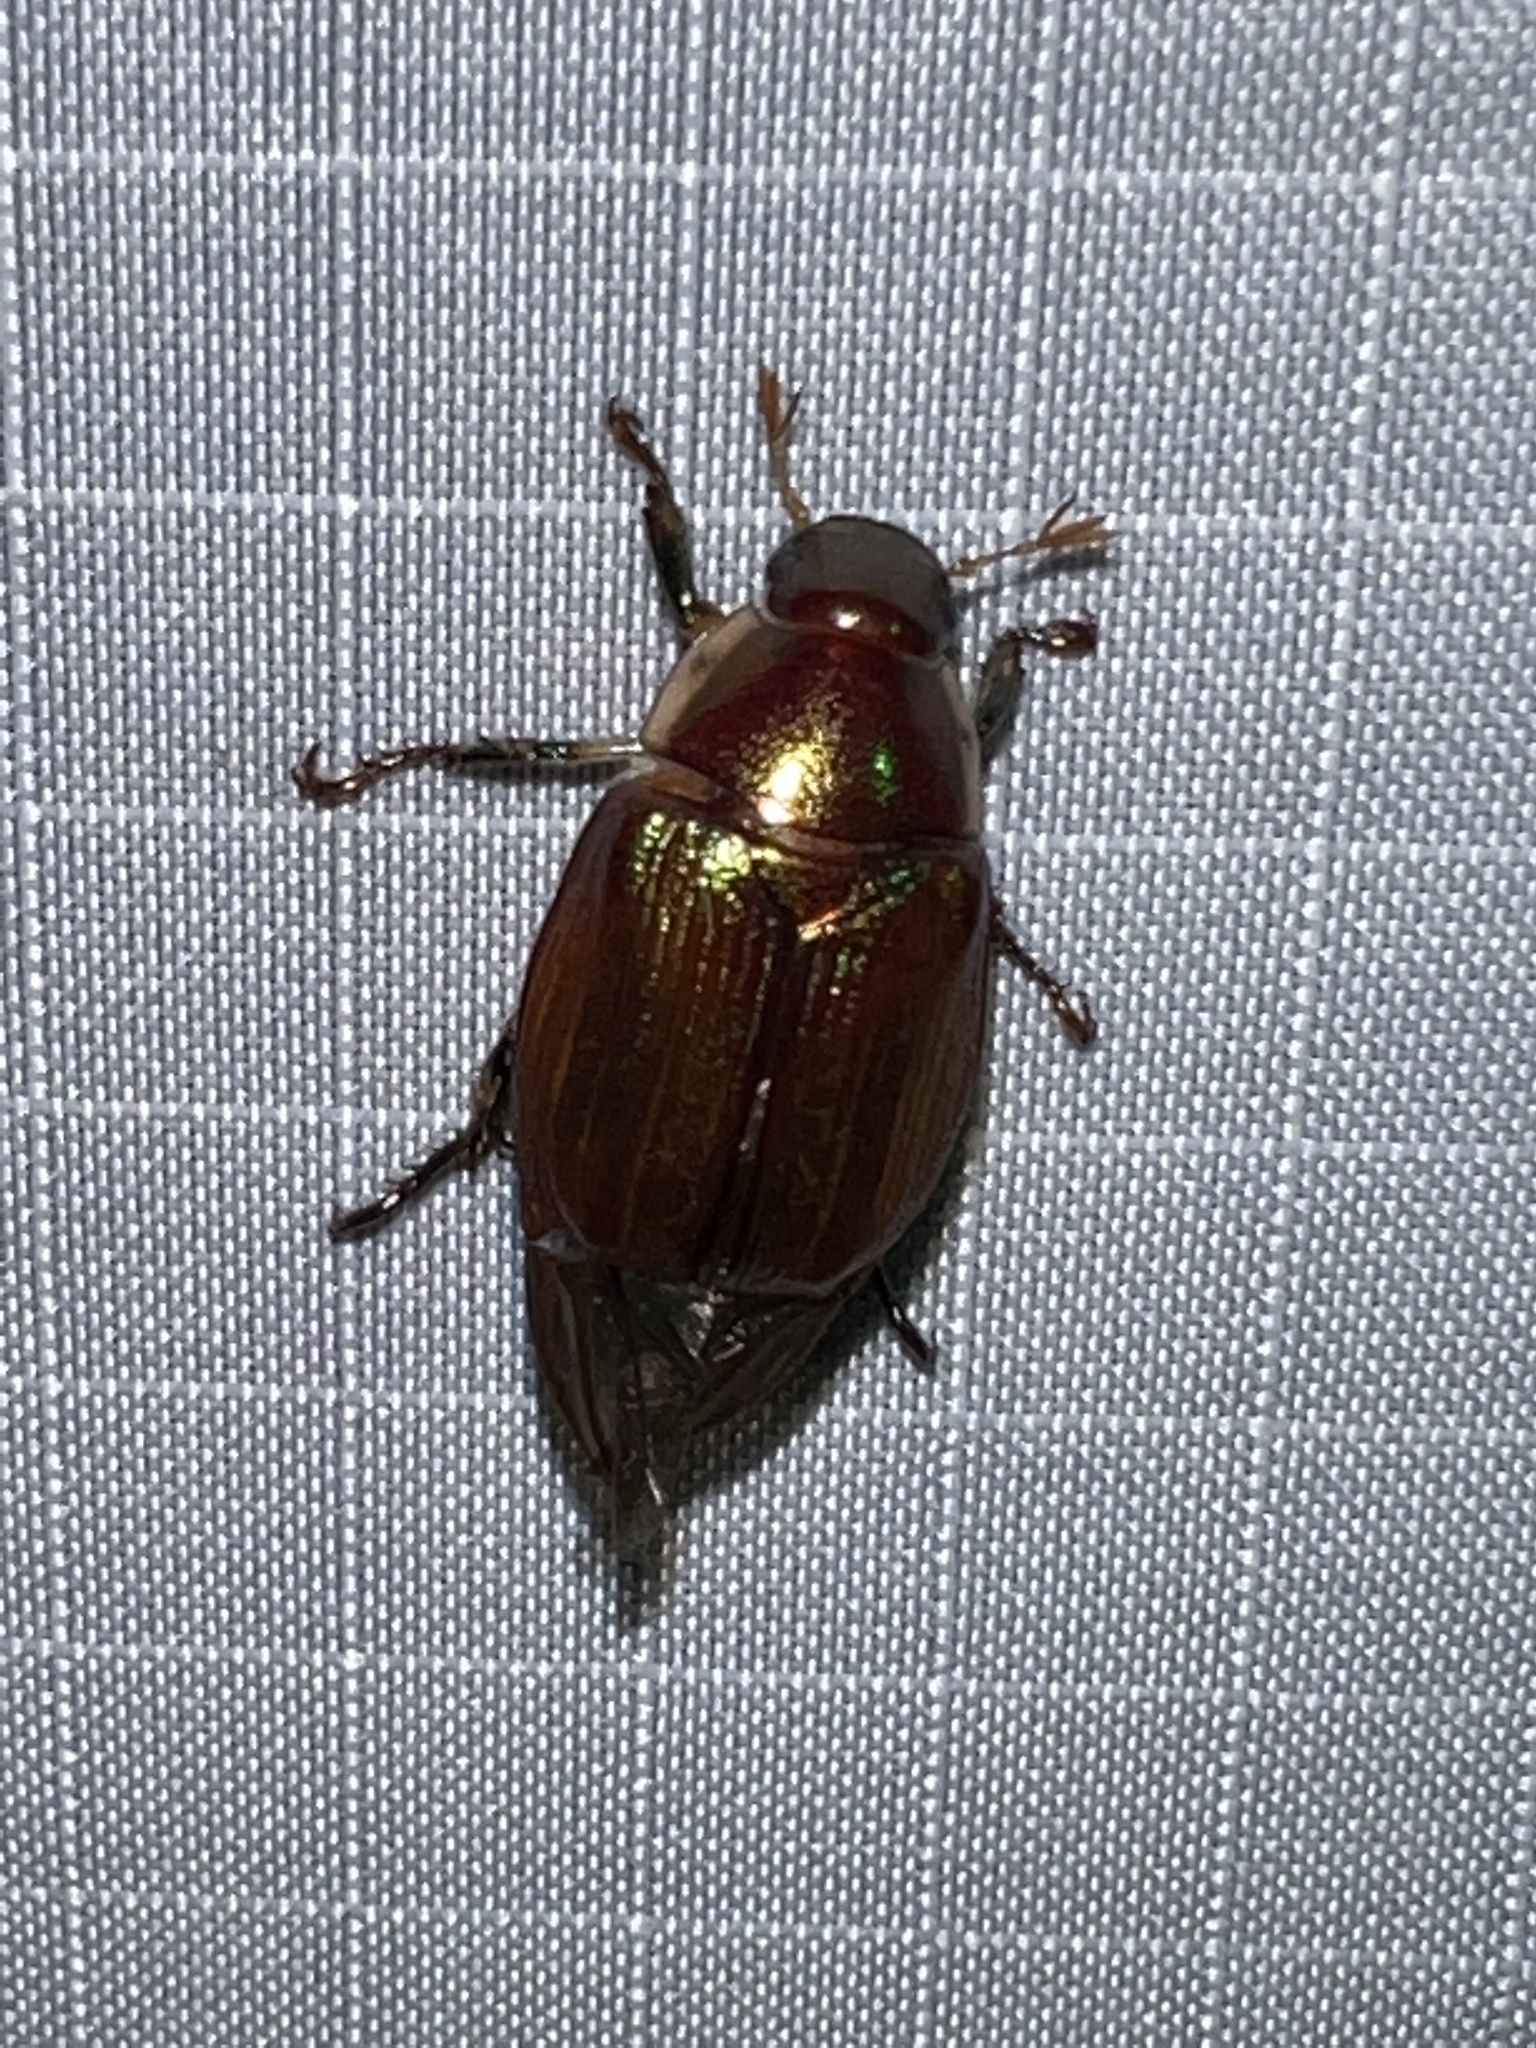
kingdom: Animalia
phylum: Arthropoda
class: Insecta
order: Coleoptera
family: Scarabaeidae
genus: Callistethus
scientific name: Callistethus marginatus
